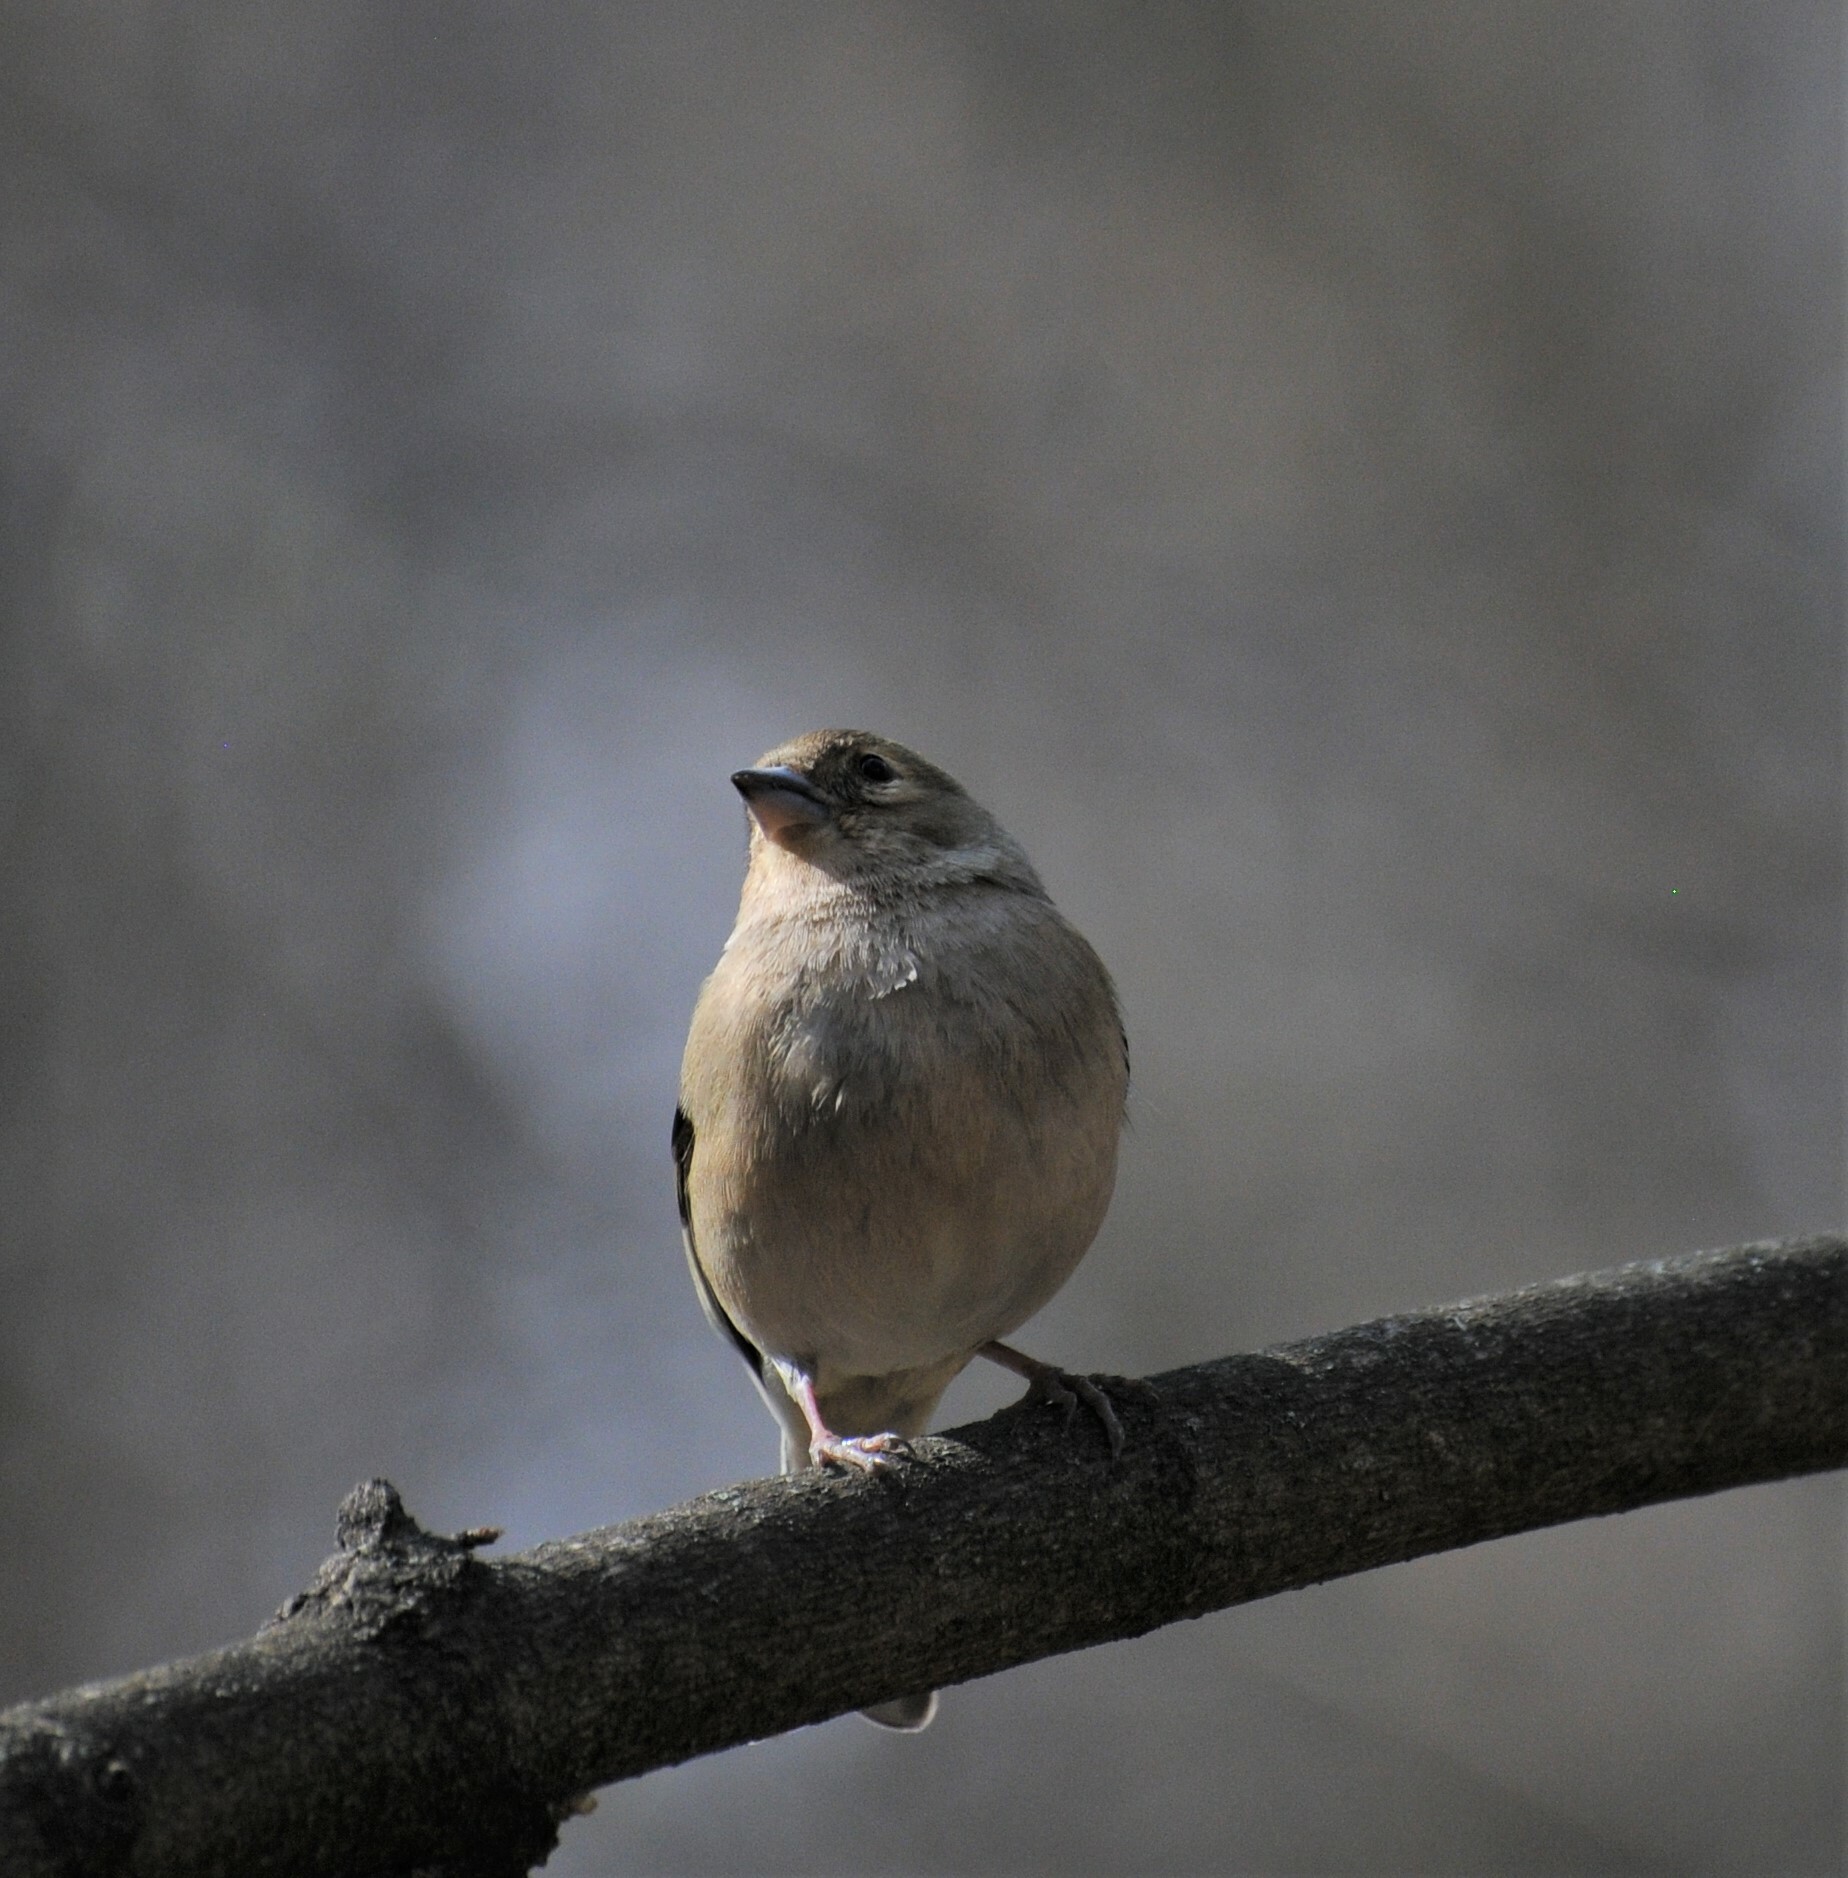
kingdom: Animalia
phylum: Chordata
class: Aves
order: Passeriformes
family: Fringillidae
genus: Fringilla
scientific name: Fringilla coelebs
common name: Common chaffinch
